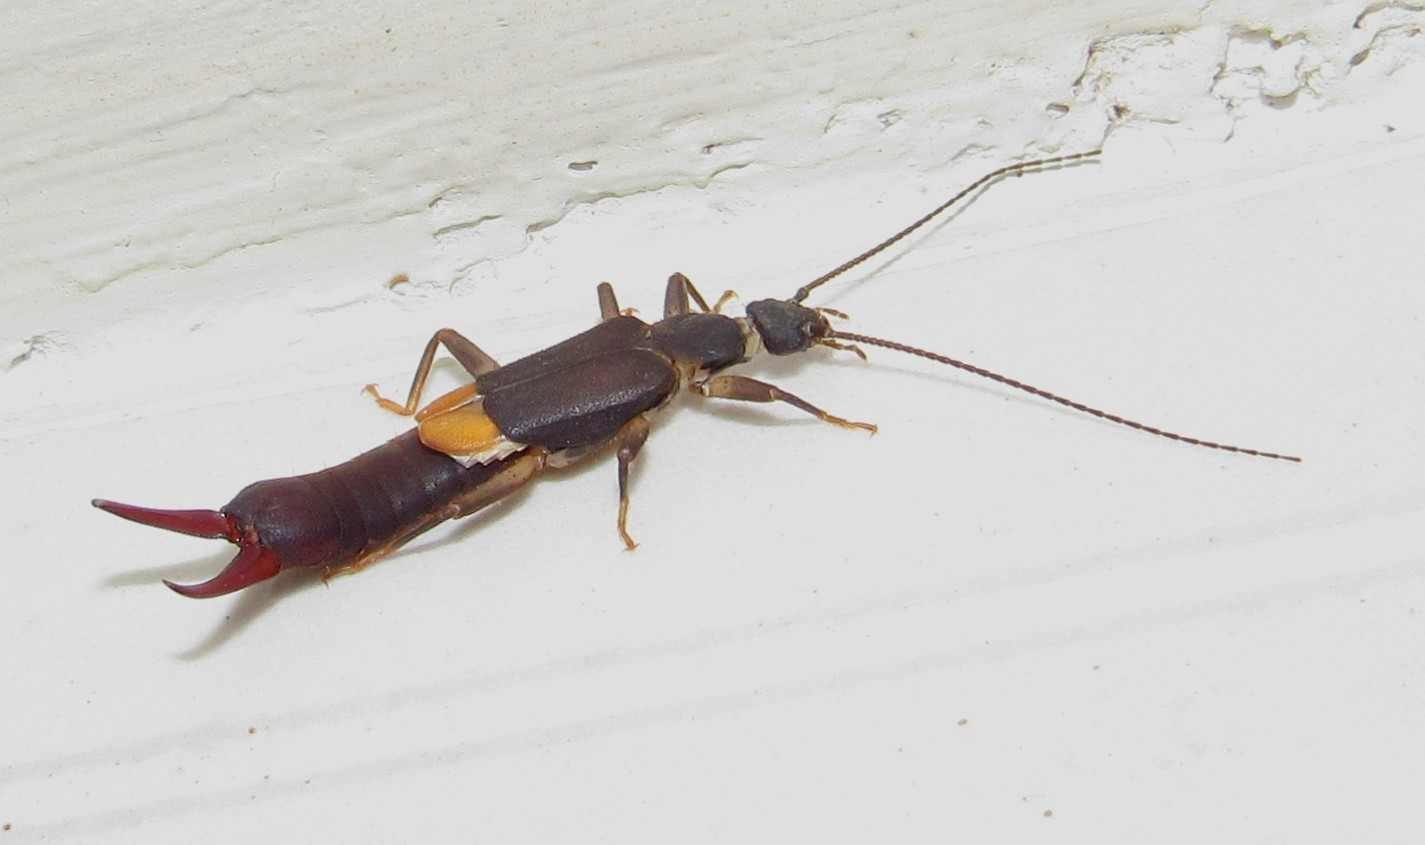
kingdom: Animalia
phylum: Arthropoda
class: Insecta
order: Dermaptera
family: Pygidicranidae
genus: Pyragra
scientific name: Pyragra paraguayensis
